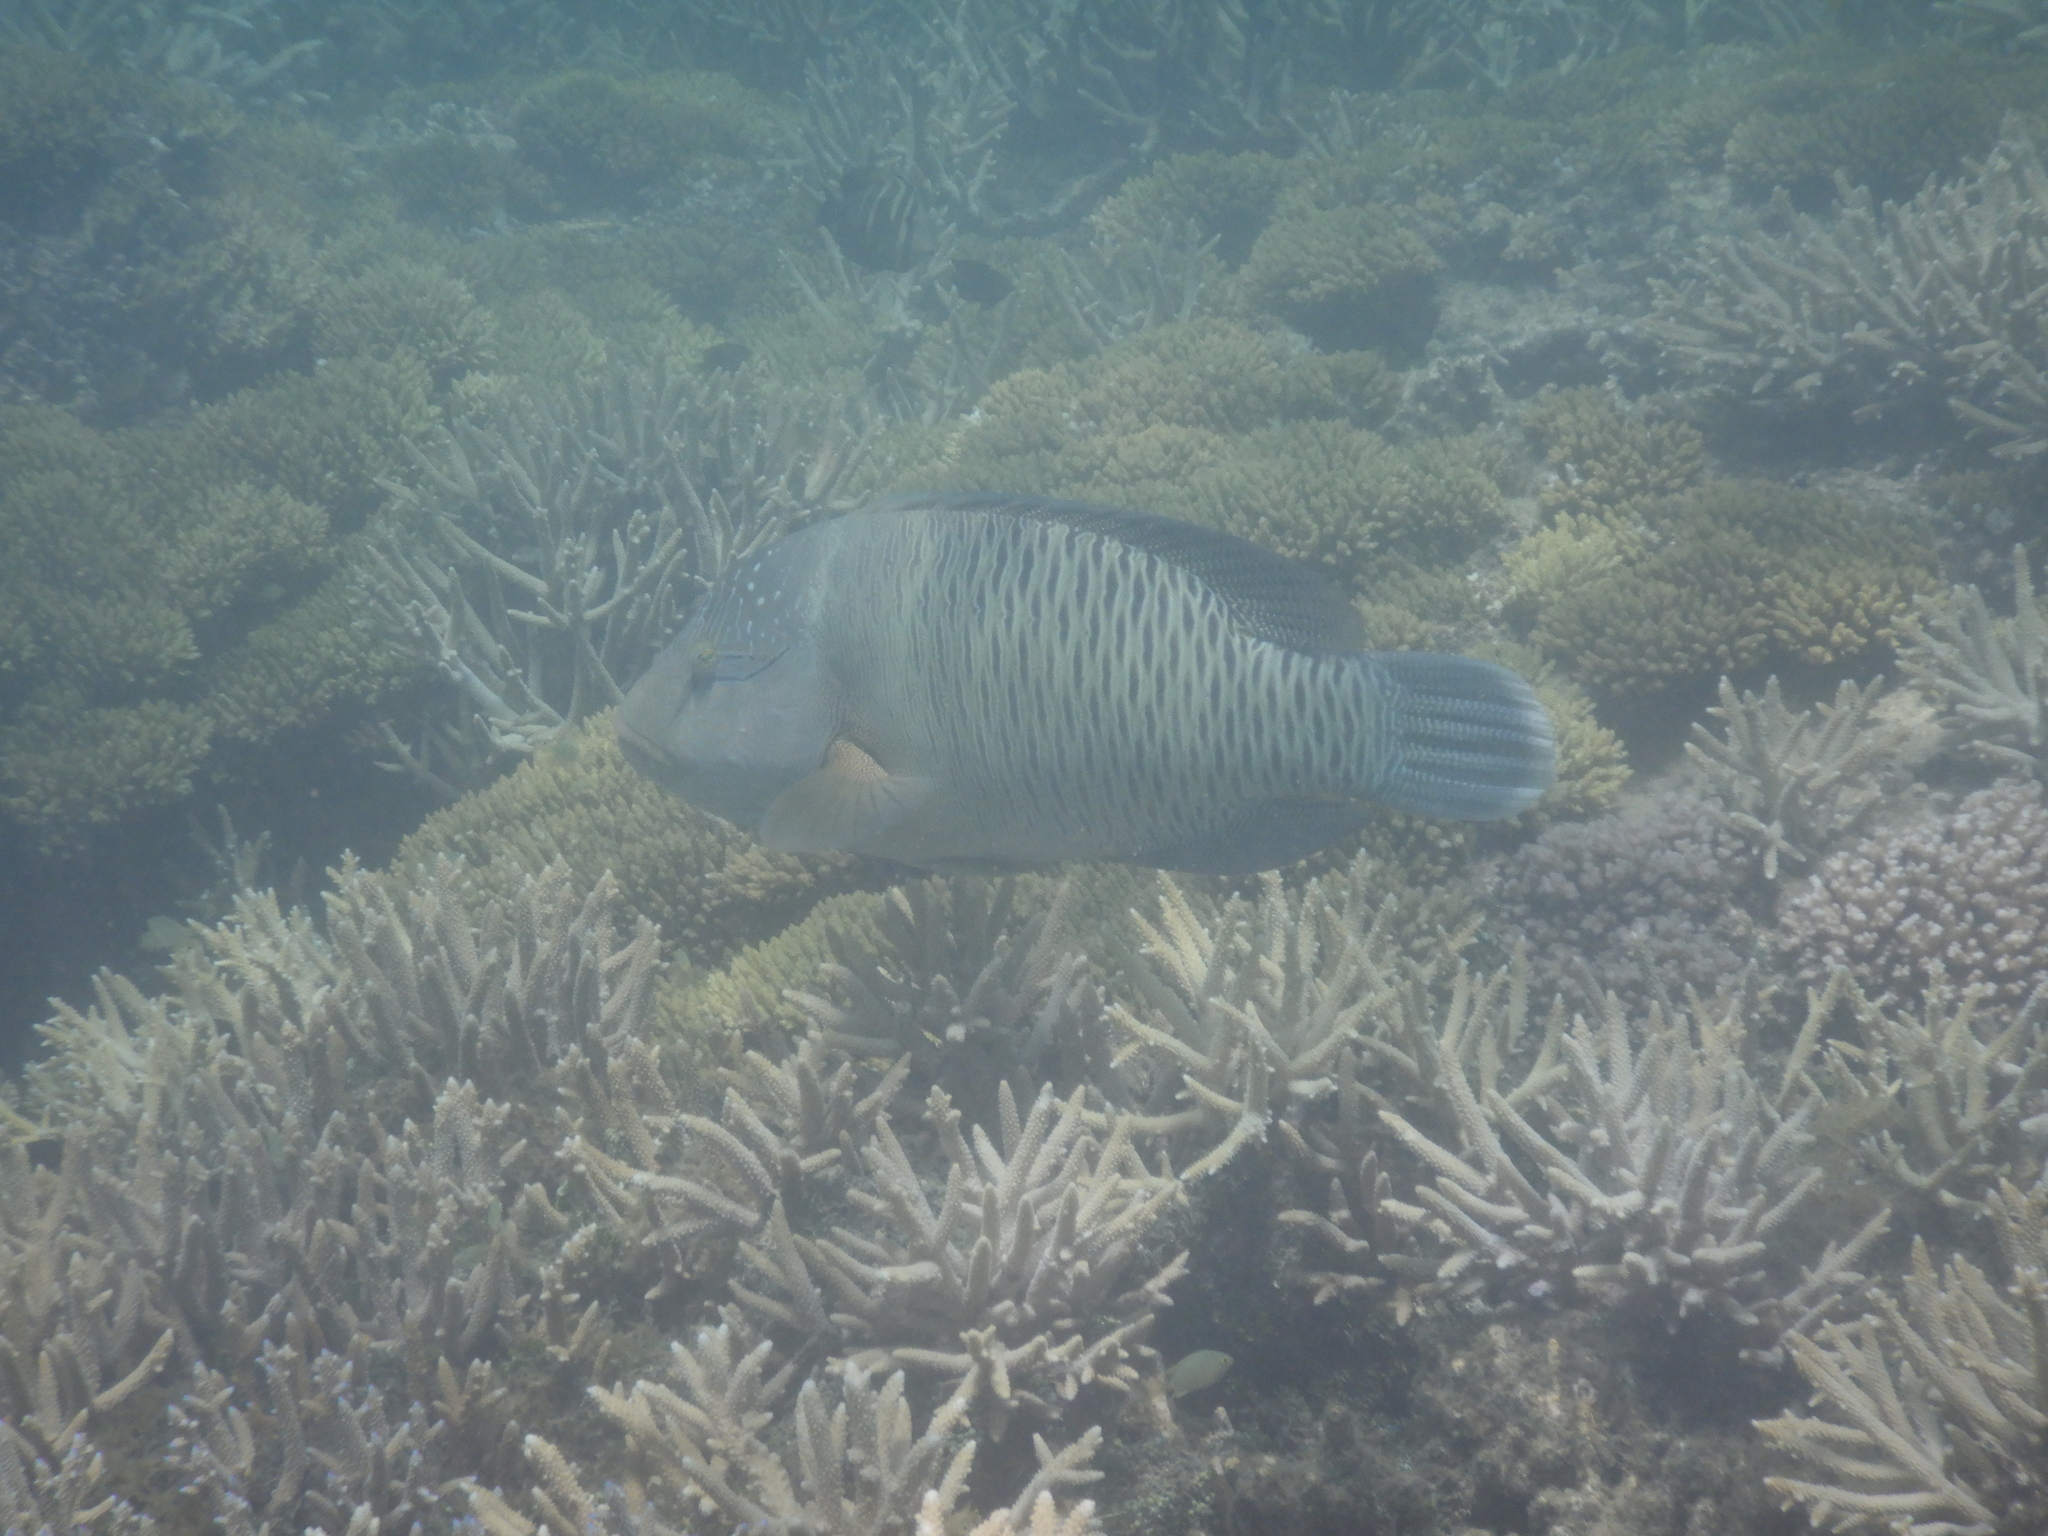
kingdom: Animalia
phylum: Chordata
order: Perciformes
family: Labridae
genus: Cheilinus
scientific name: Cheilinus undulatus
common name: Humphead wrasse
